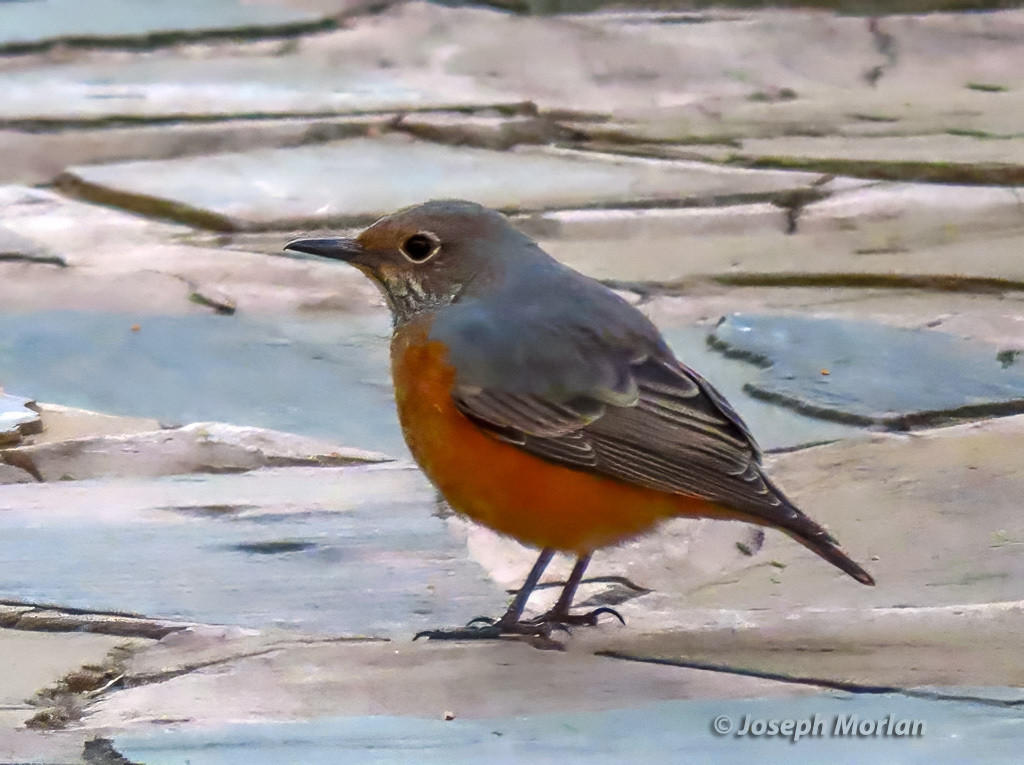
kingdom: Animalia
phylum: Chordata
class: Aves
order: Passeriformes
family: Muscicapidae
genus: Monticola
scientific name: Monticola brevipes
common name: Short-toed rock thrush
